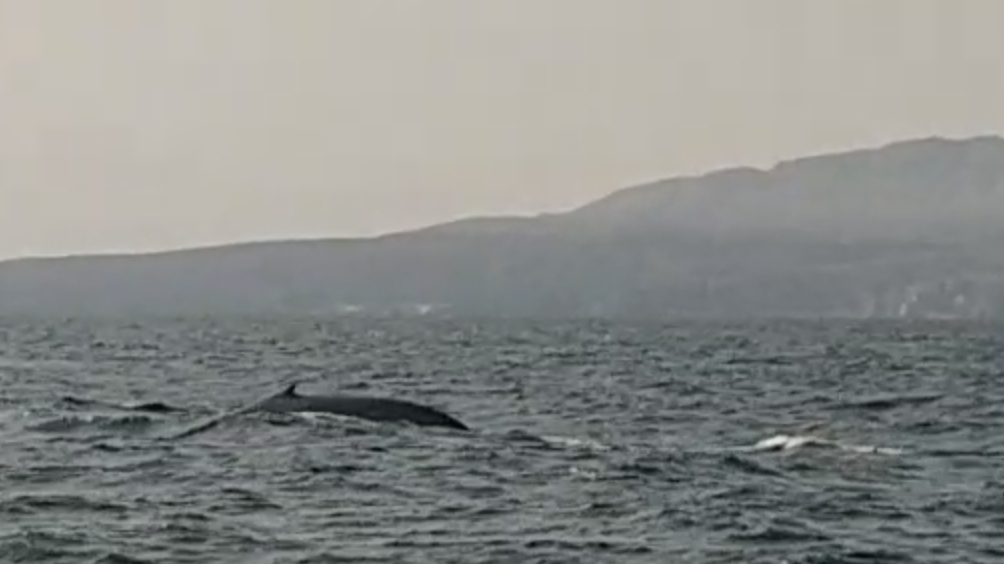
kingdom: Animalia
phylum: Chordata
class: Mammalia
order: Cetacea
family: Balaenopteridae
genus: Balaenoptera
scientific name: Balaenoptera musculus
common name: Blue whale
